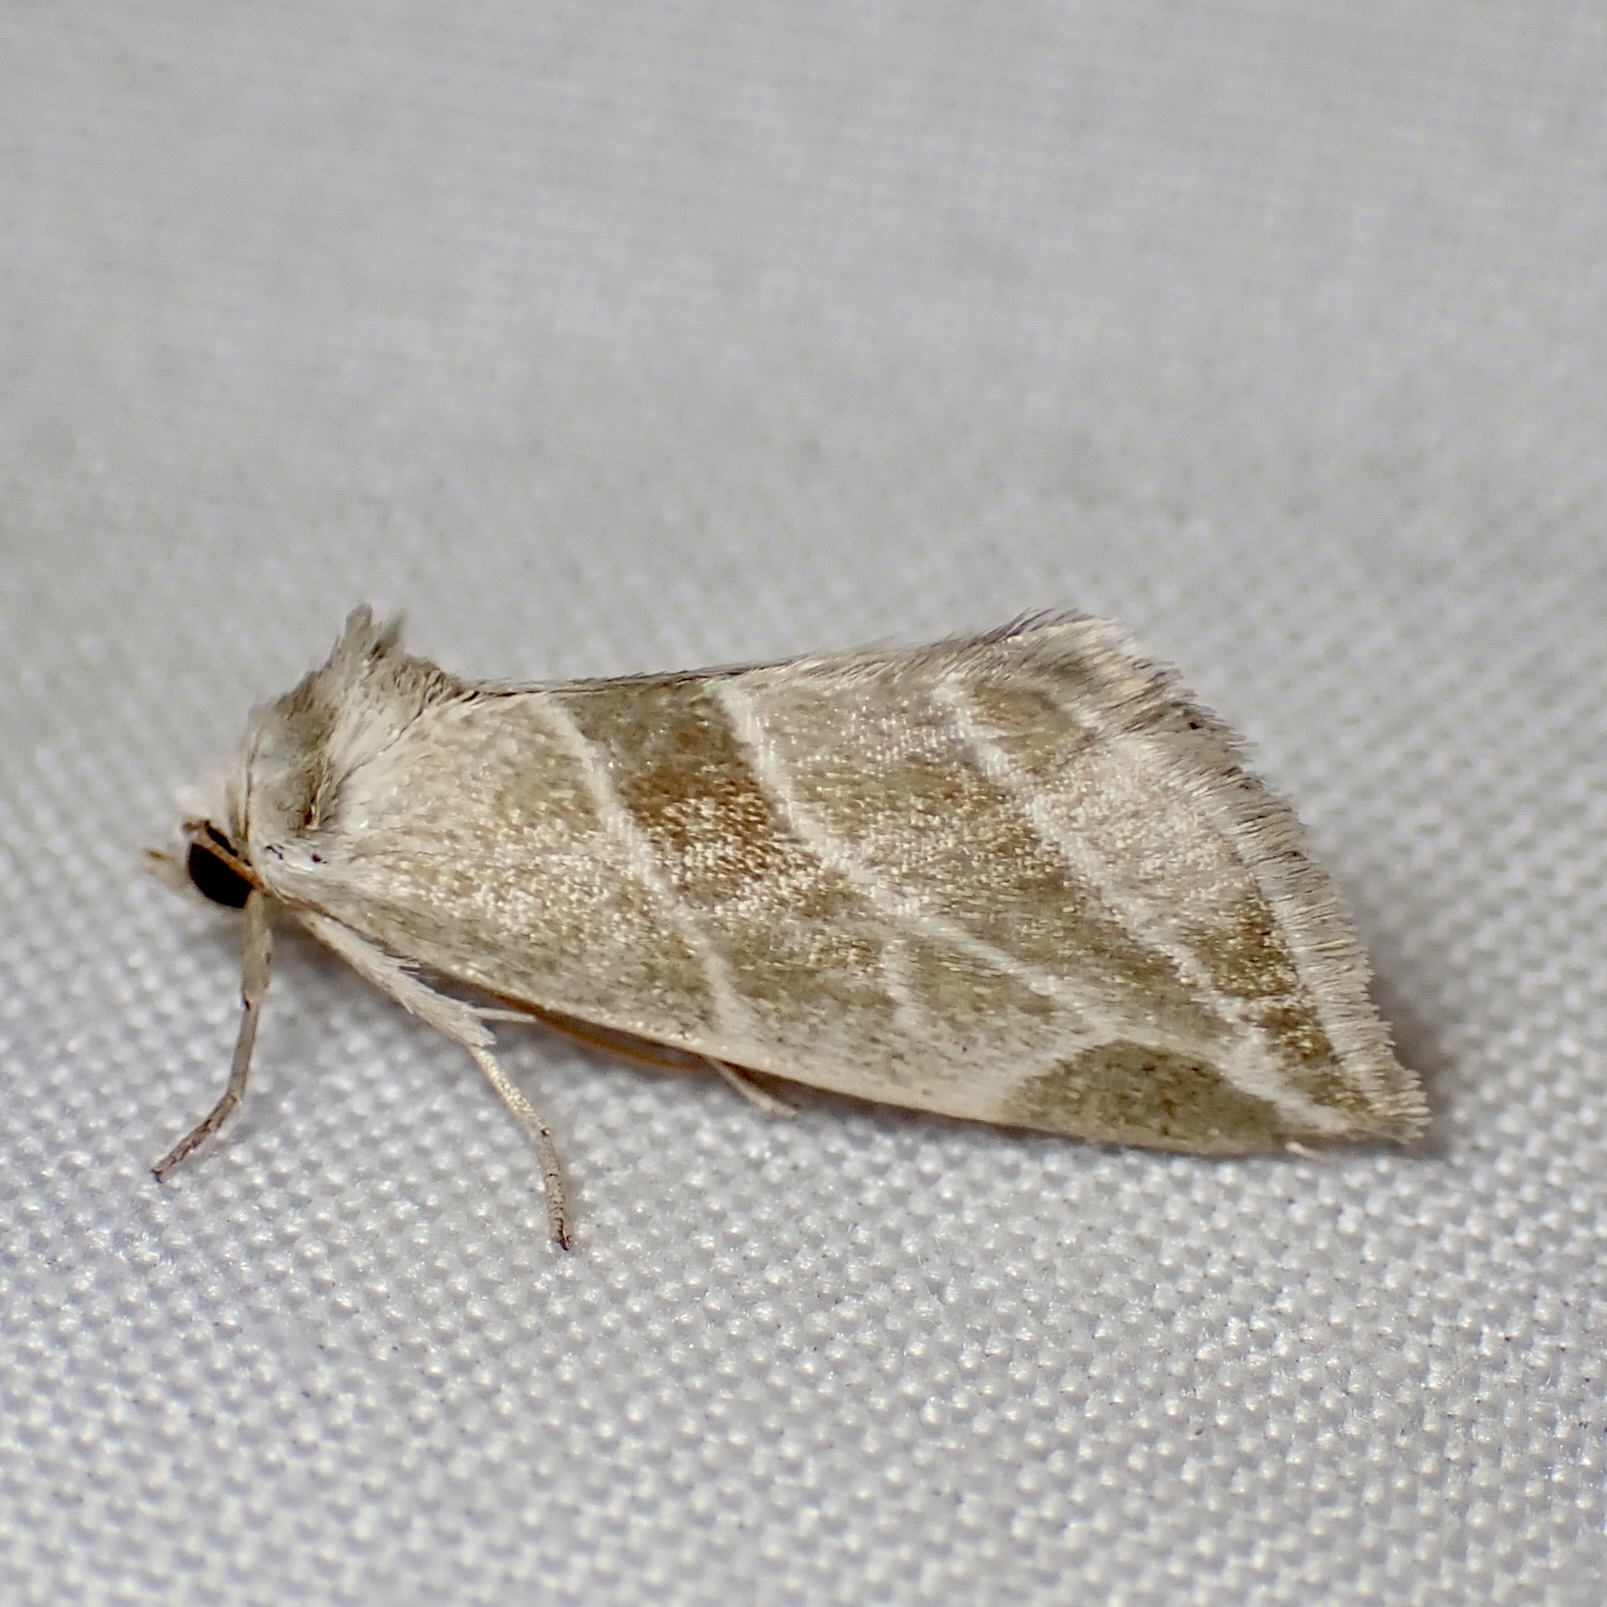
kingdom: Animalia
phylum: Arthropoda
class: Insecta
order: Lepidoptera
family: Noctuidae
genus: Plagiomimicus
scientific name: Plagiomimicus mimica
